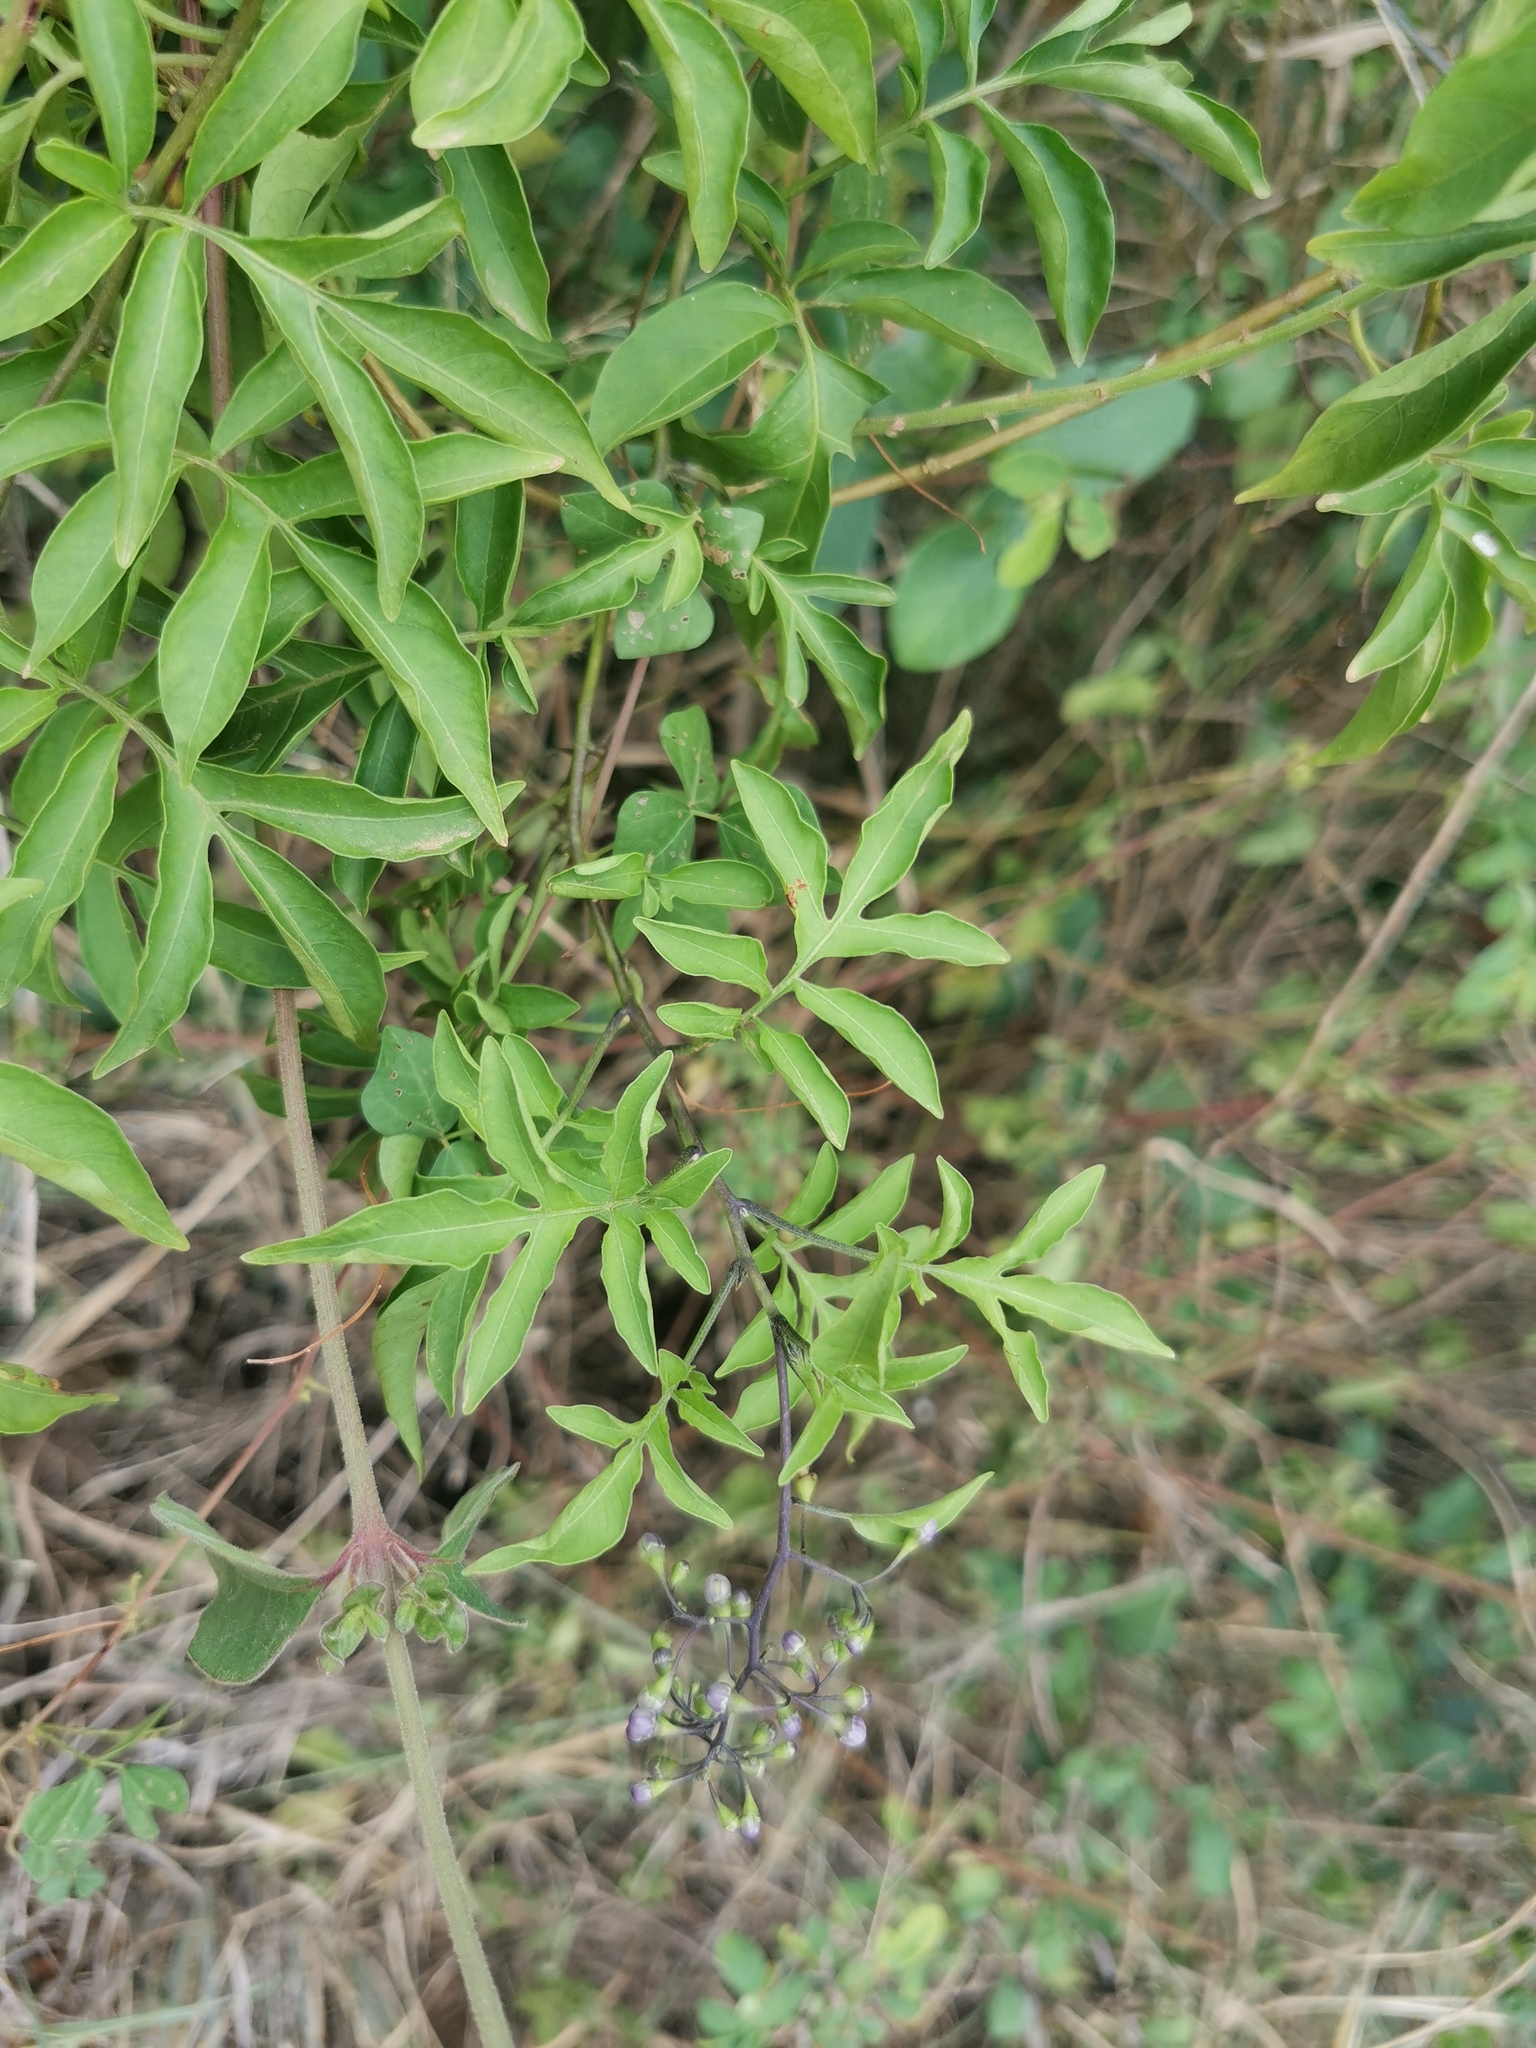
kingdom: Plantae
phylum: Tracheophyta
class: Magnoliopsida
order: Solanales
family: Solanaceae
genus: Solanum
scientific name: Solanum seaforthianum
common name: Brazilian nightshade
